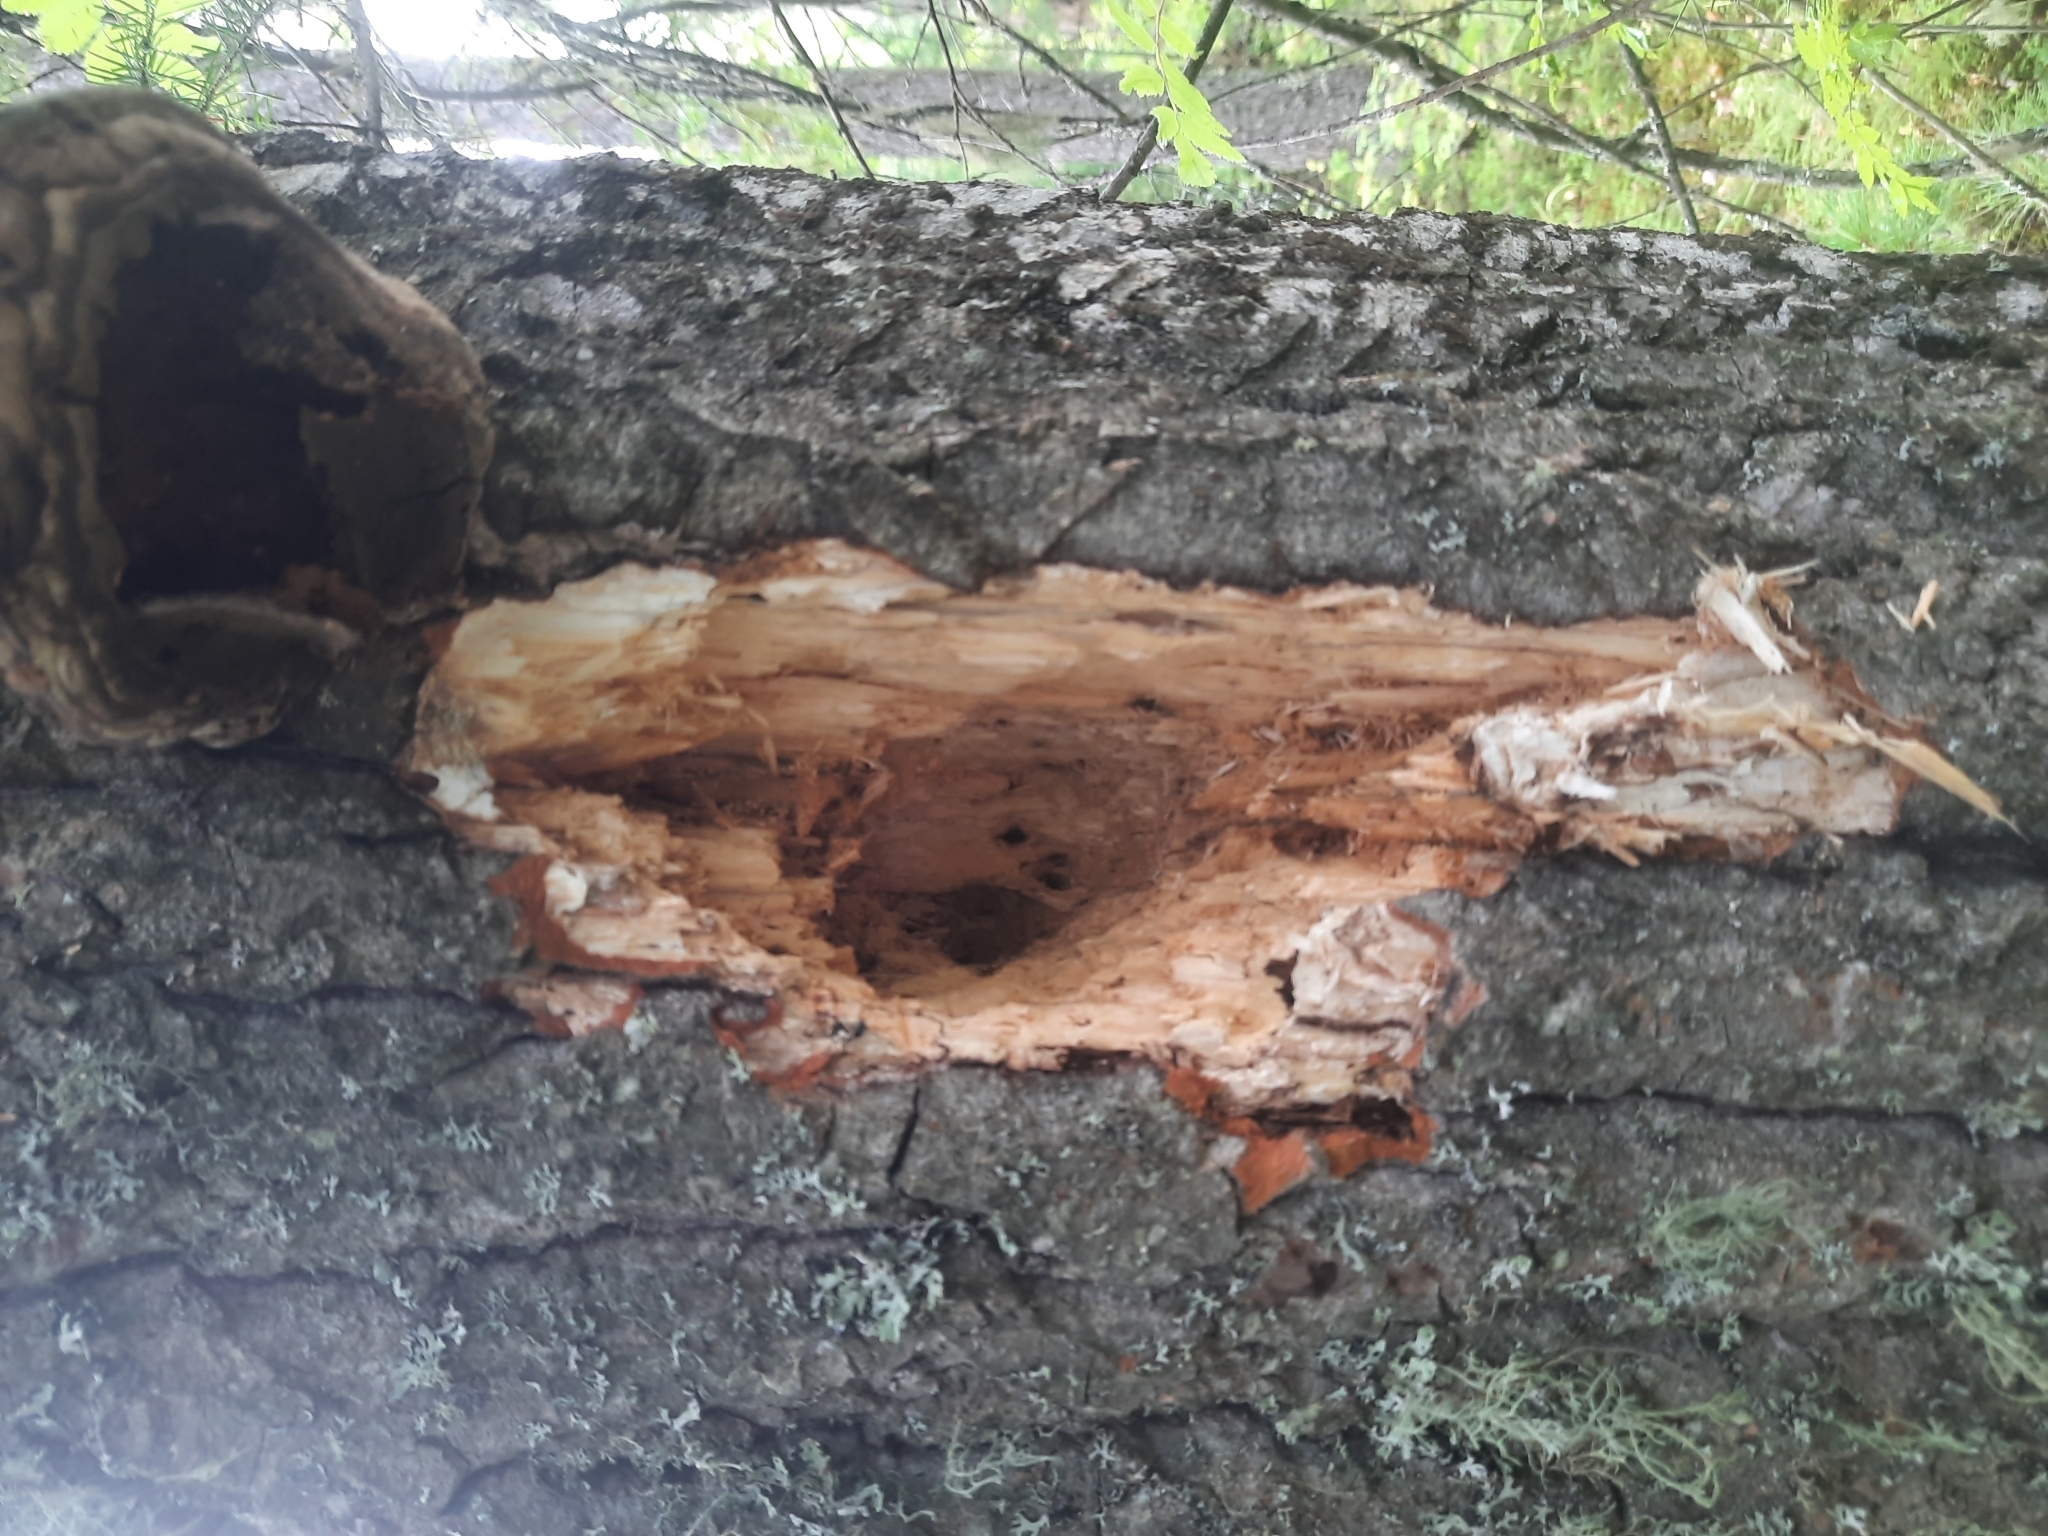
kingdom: Animalia
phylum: Chordata
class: Aves
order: Piciformes
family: Picidae
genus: Dryocopus
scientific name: Dryocopus martius
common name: Black woodpecker
